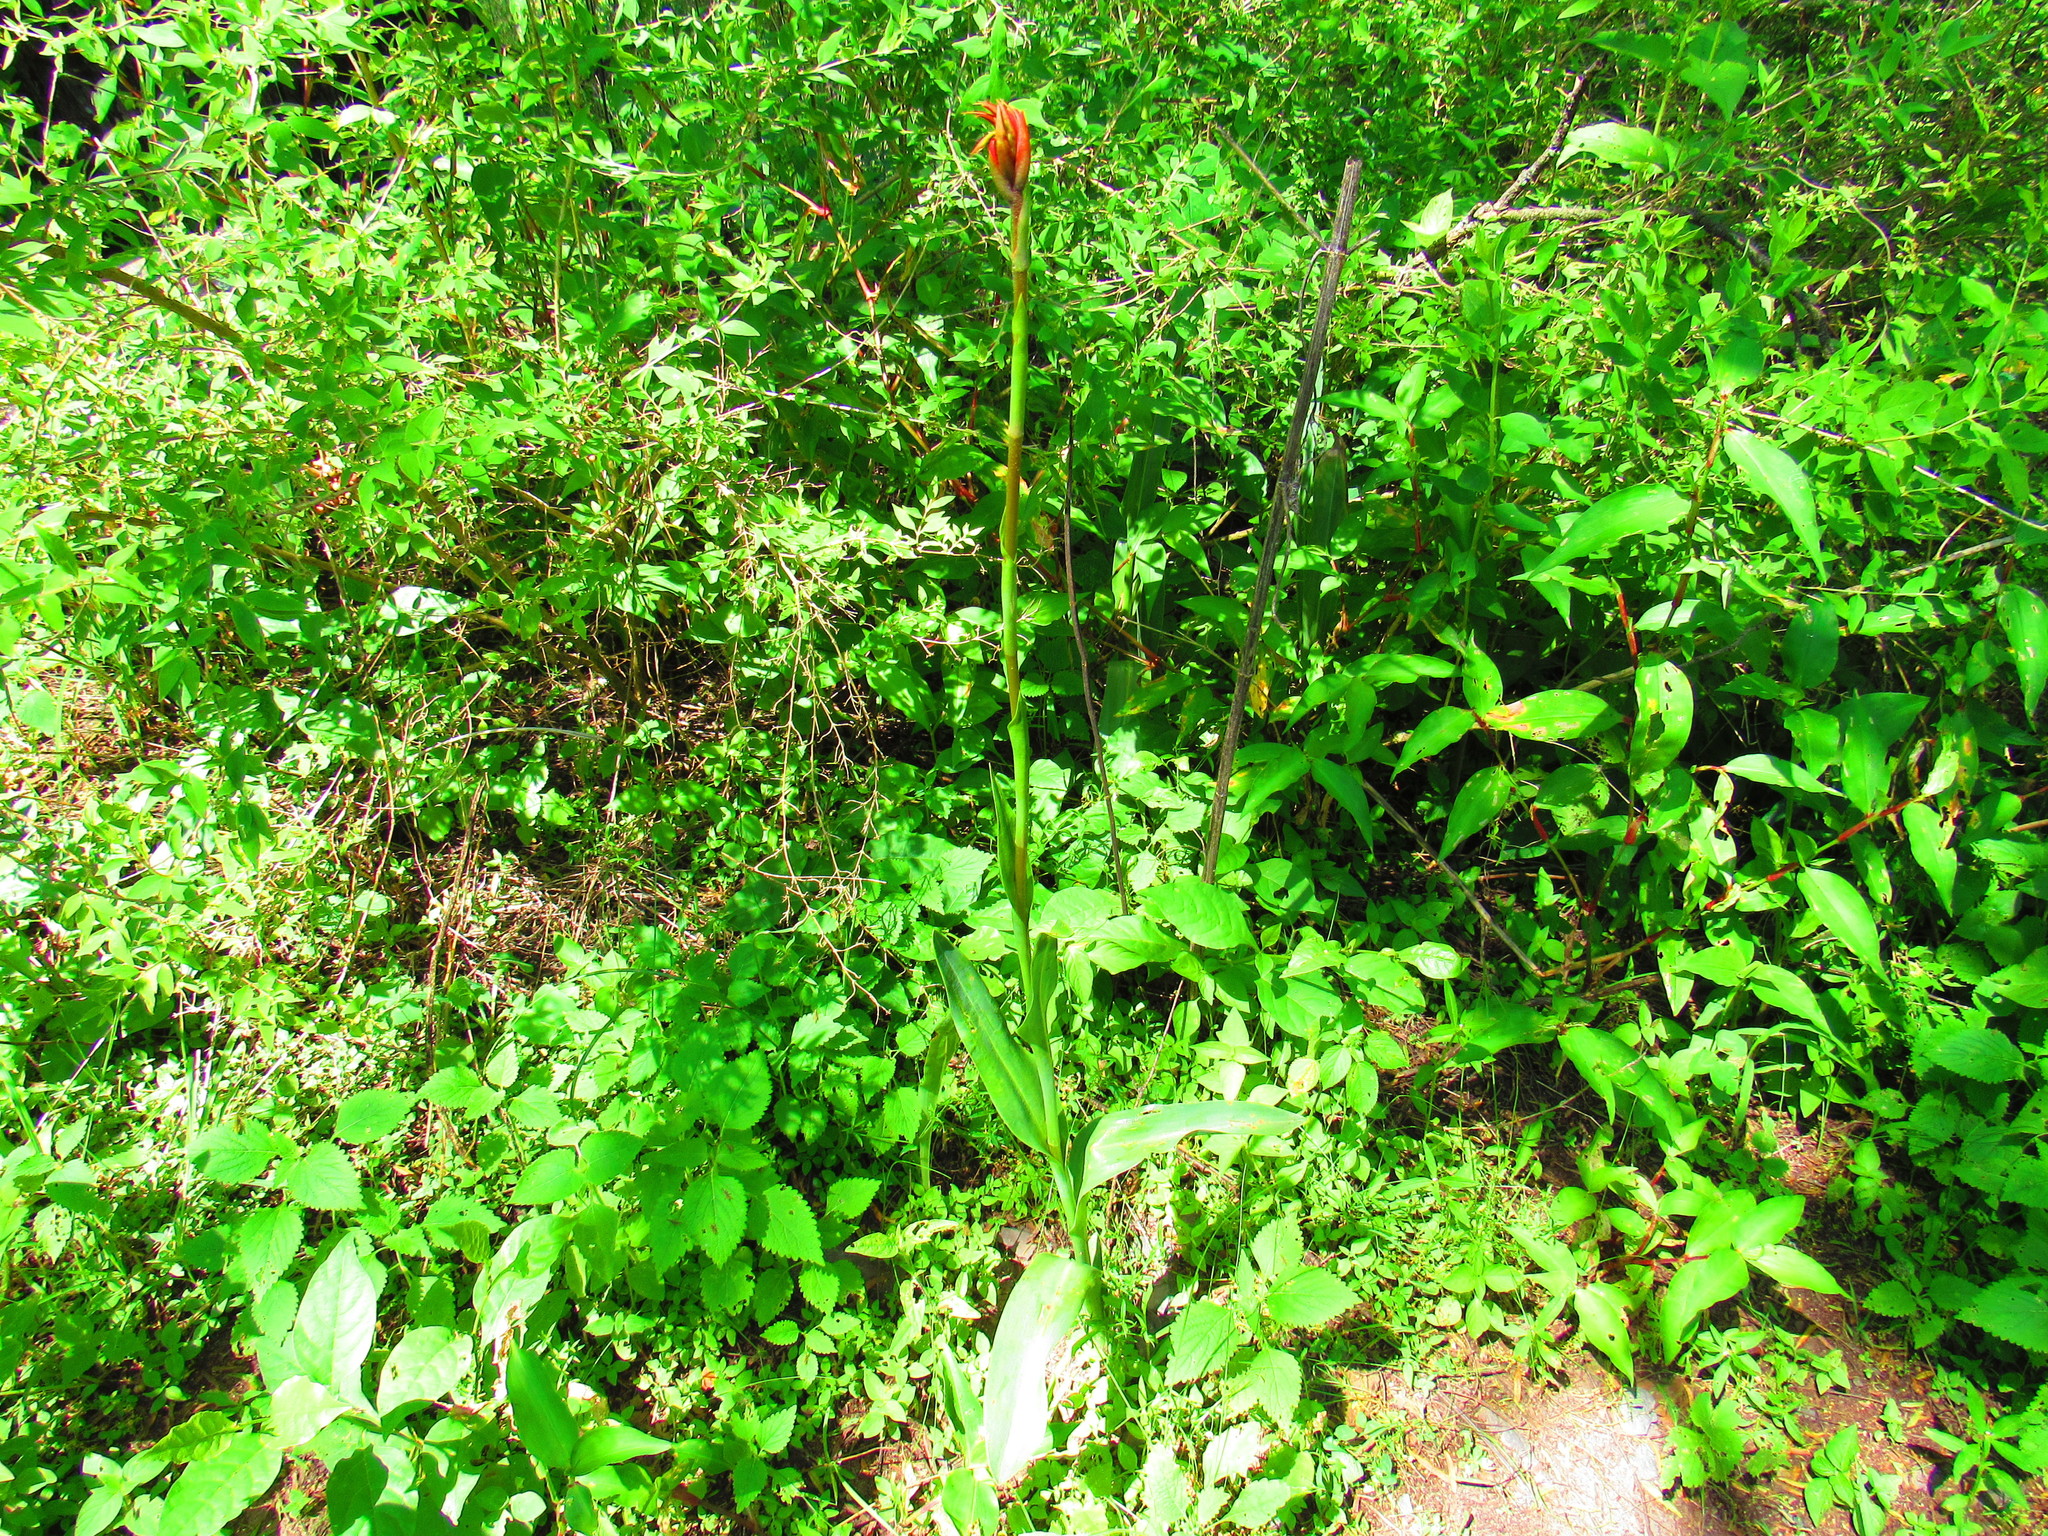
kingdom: Plantae
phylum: Tracheophyta
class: Liliopsida
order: Asparagales
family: Orchidaceae
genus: Dichromanthus
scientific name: Dichromanthus cinnabarinus
